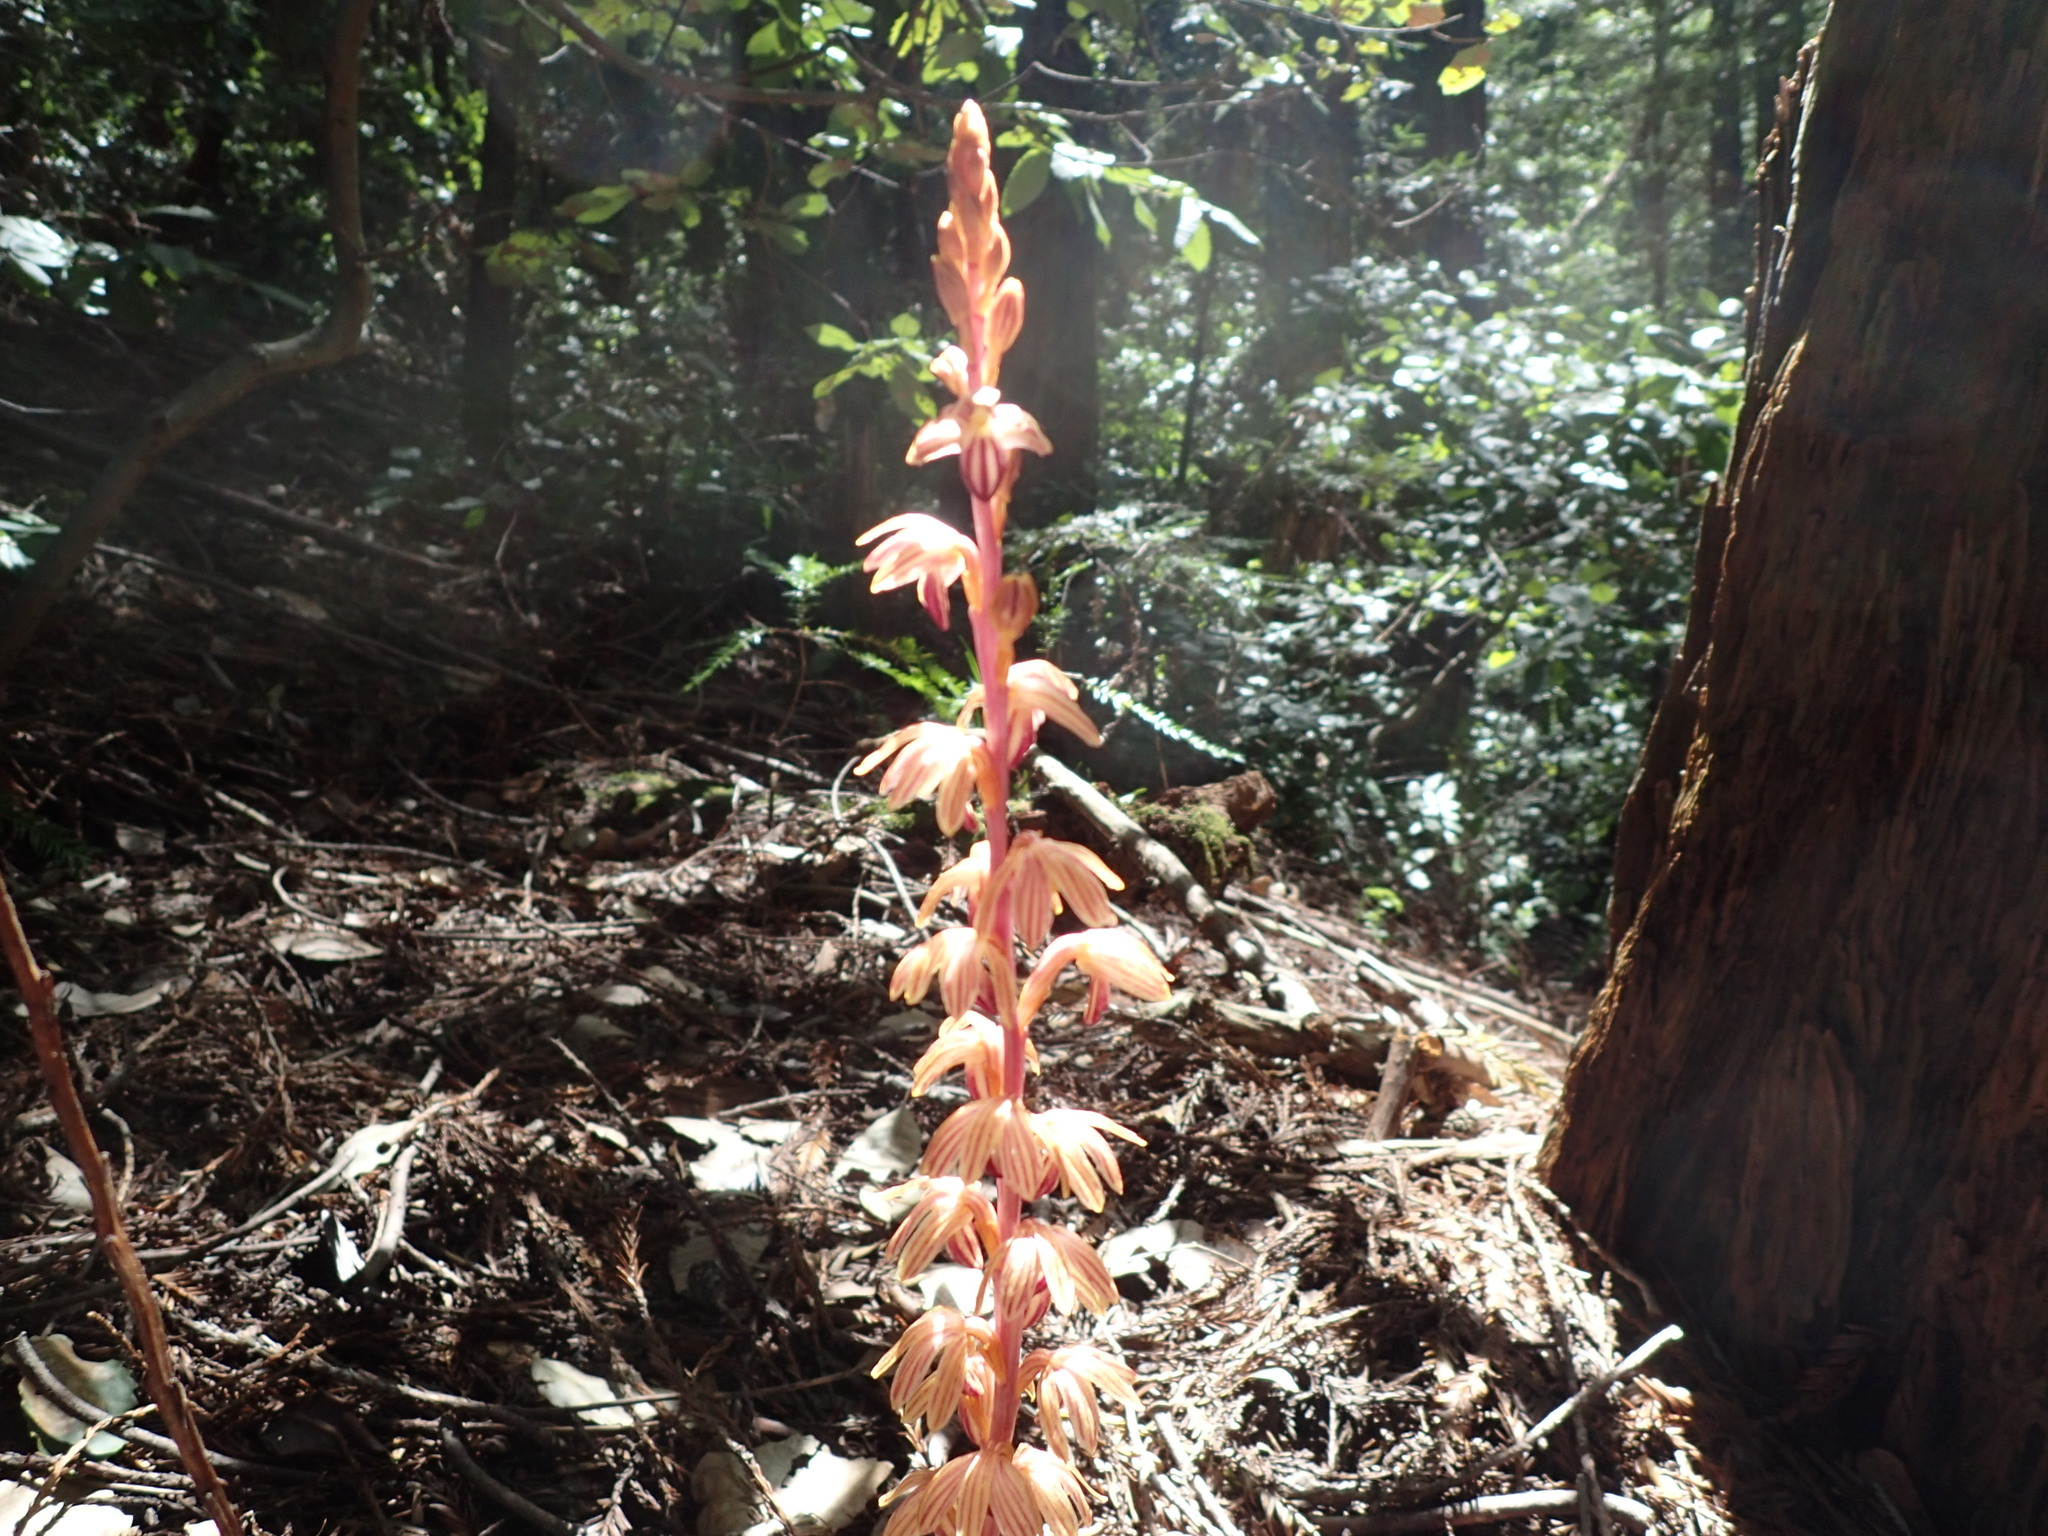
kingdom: Plantae
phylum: Tracheophyta
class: Liliopsida
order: Asparagales
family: Orchidaceae
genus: Corallorhiza
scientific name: Corallorhiza striata
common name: Hooded coralroot
